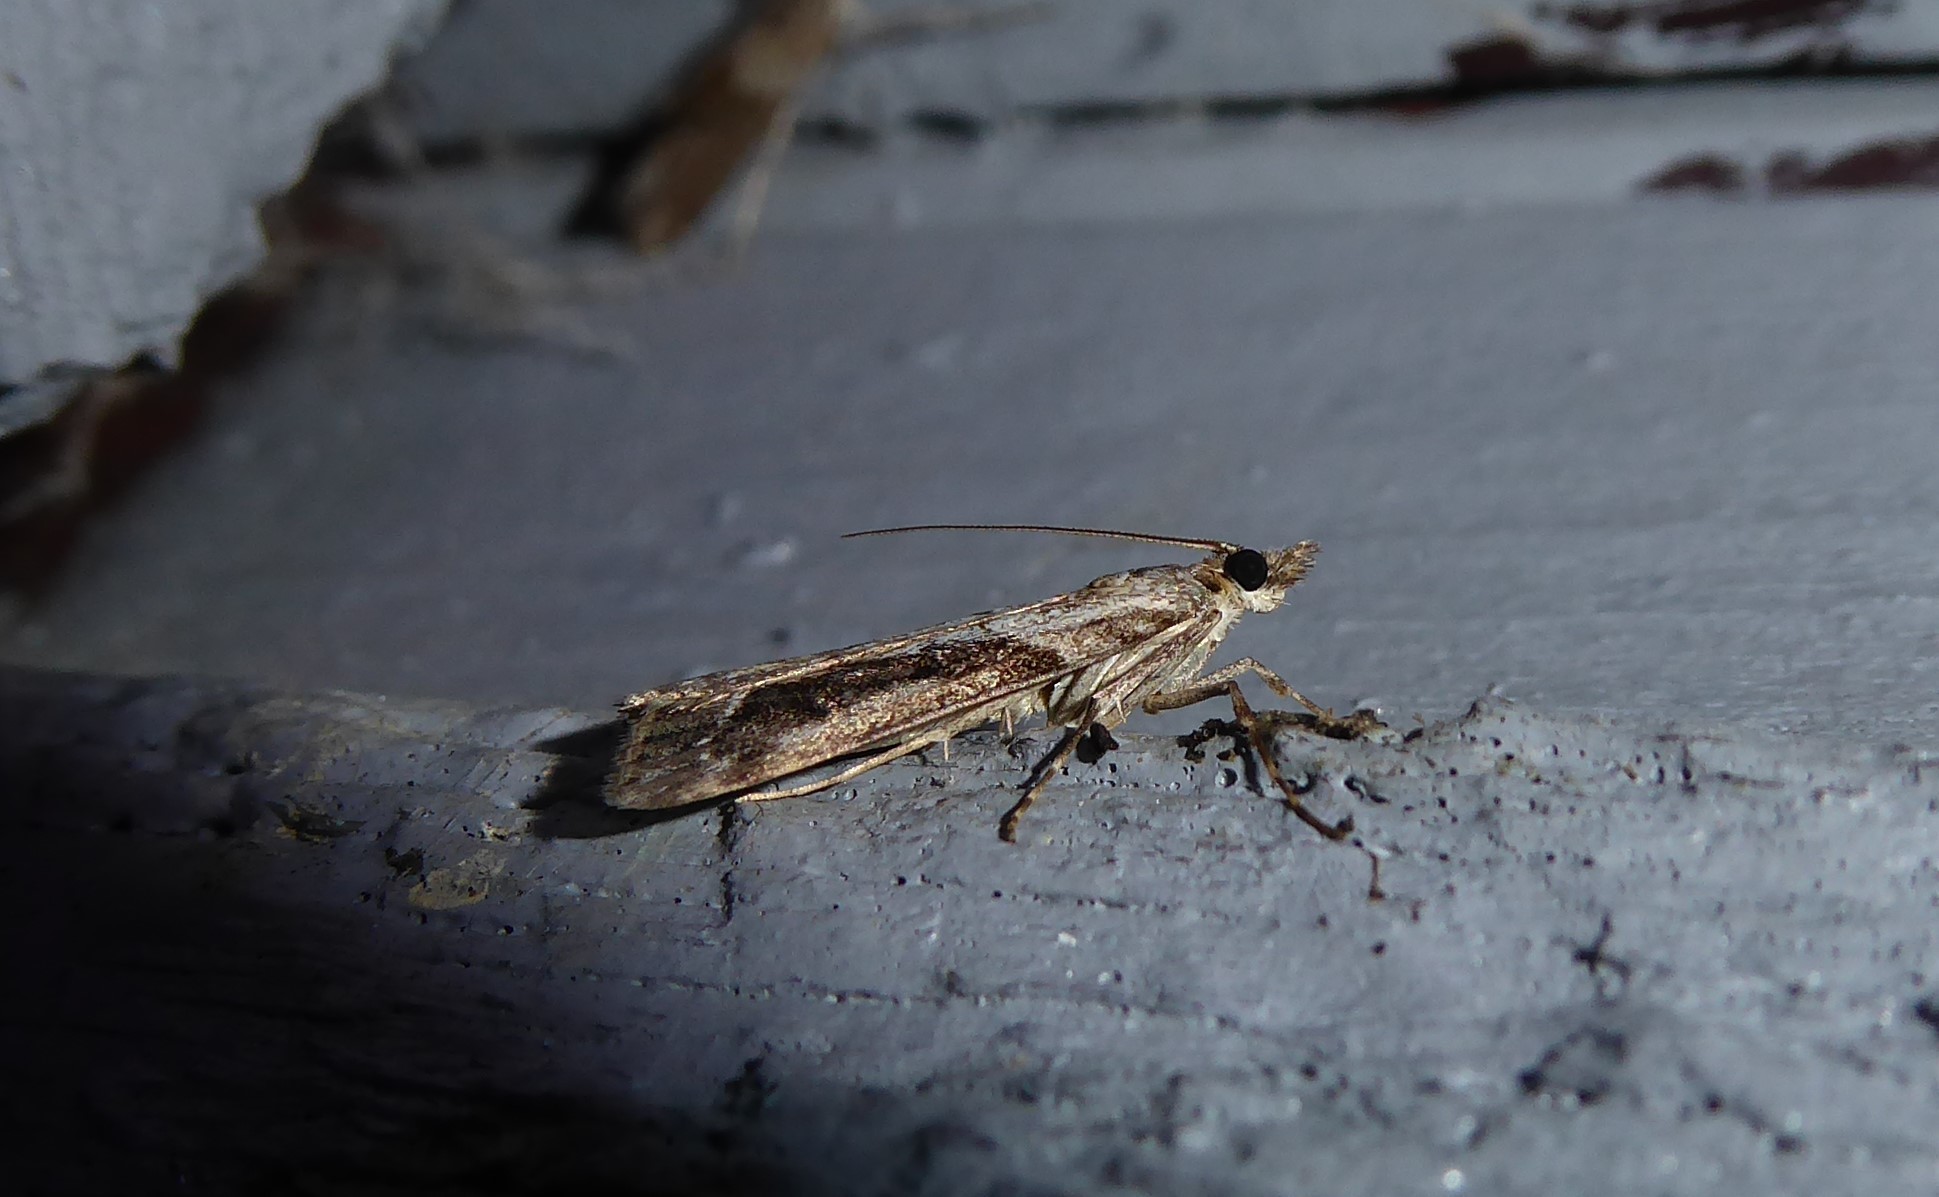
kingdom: Animalia
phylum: Arthropoda
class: Insecta
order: Lepidoptera
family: Crambidae
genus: Eudonia
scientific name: Eudonia submarginalis
